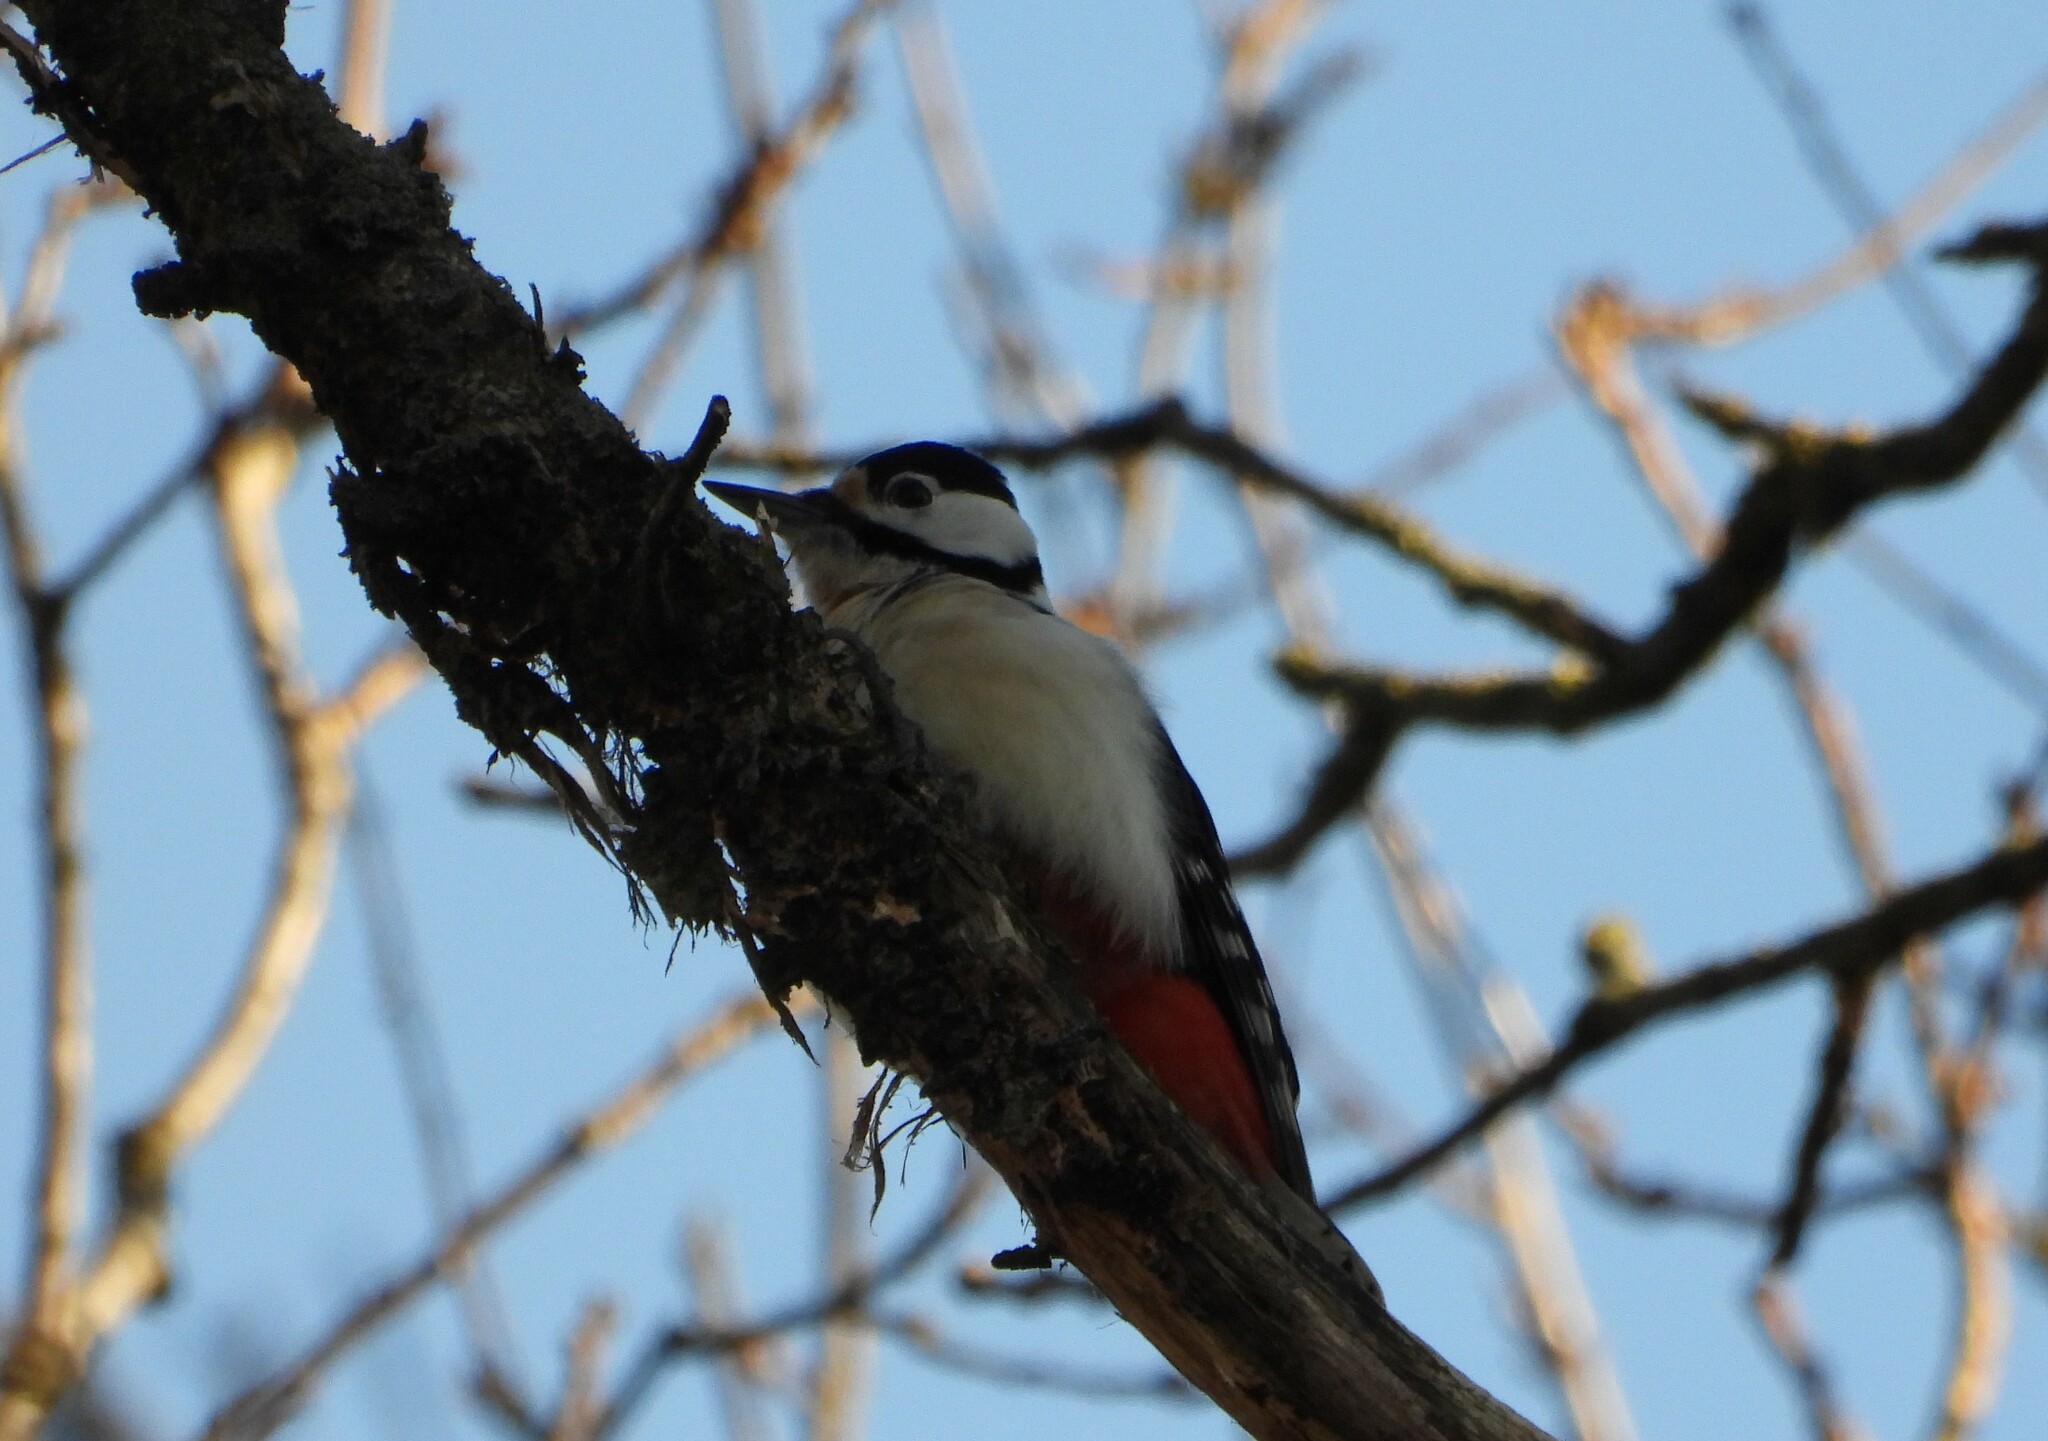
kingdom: Animalia
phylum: Chordata
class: Aves
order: Piciformes
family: Picidae
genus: Dendrocopos
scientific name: Dendrocopos major
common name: Great spotted woodpecker
